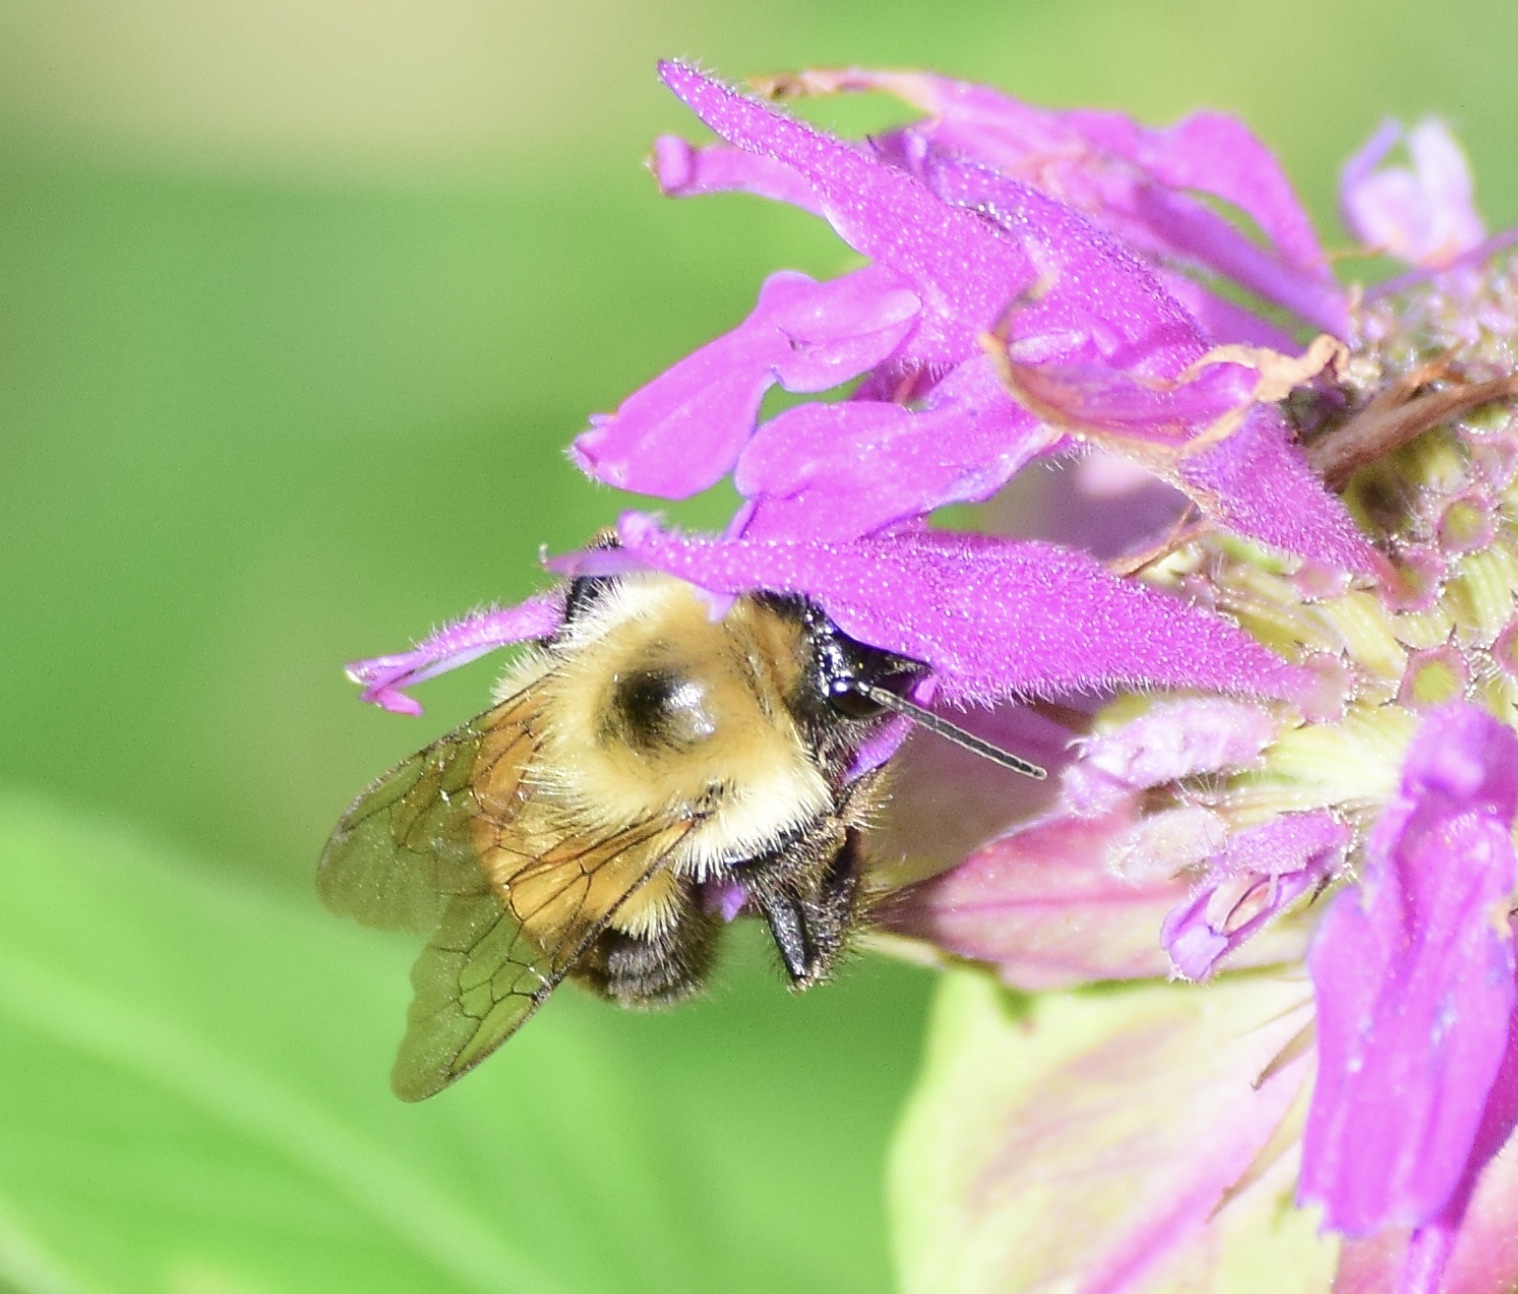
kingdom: Animalia
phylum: Arthropoda
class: Insecta
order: Hymenoptera
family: Apidae
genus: Bombus
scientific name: Bombus bimaculatus
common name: Two-spotted bumble bee
